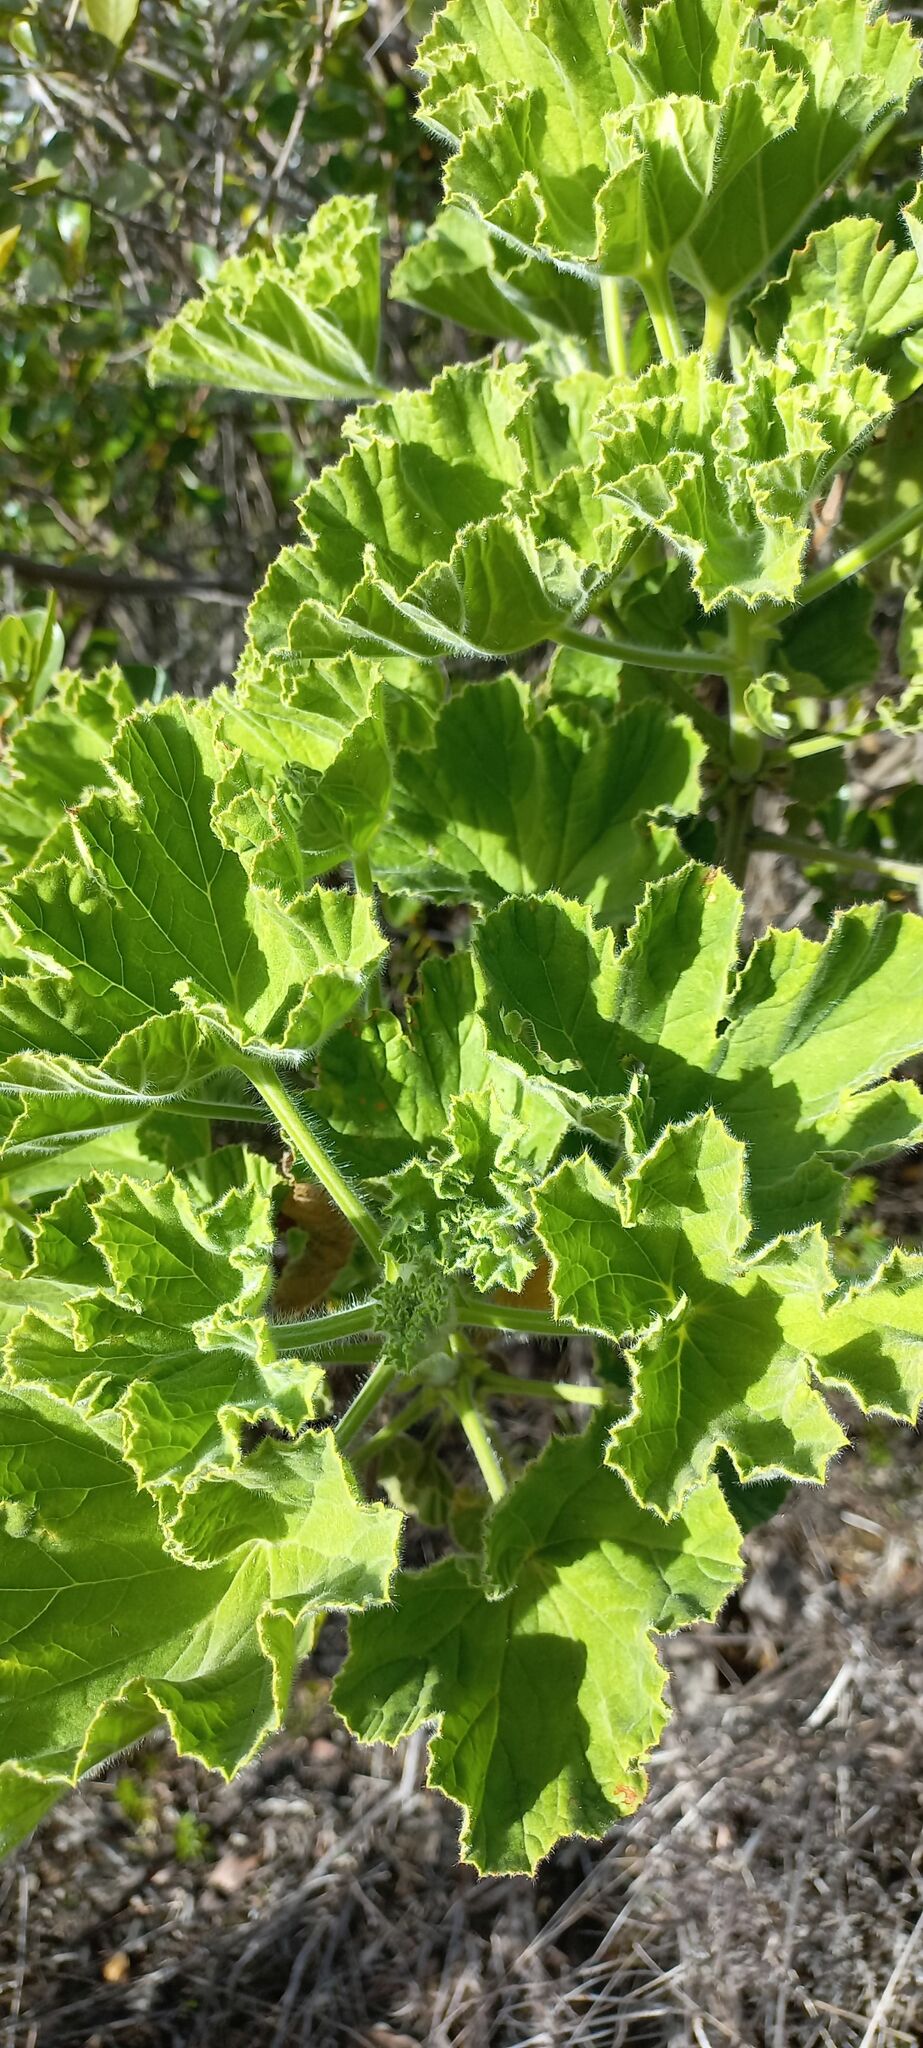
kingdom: Plantae
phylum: Tracheophyta
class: Magnoliopsida
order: Geraniales
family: Geraniaceae
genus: Pelargonium
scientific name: Pelargonium cucullatum
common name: Tree pelargonium
